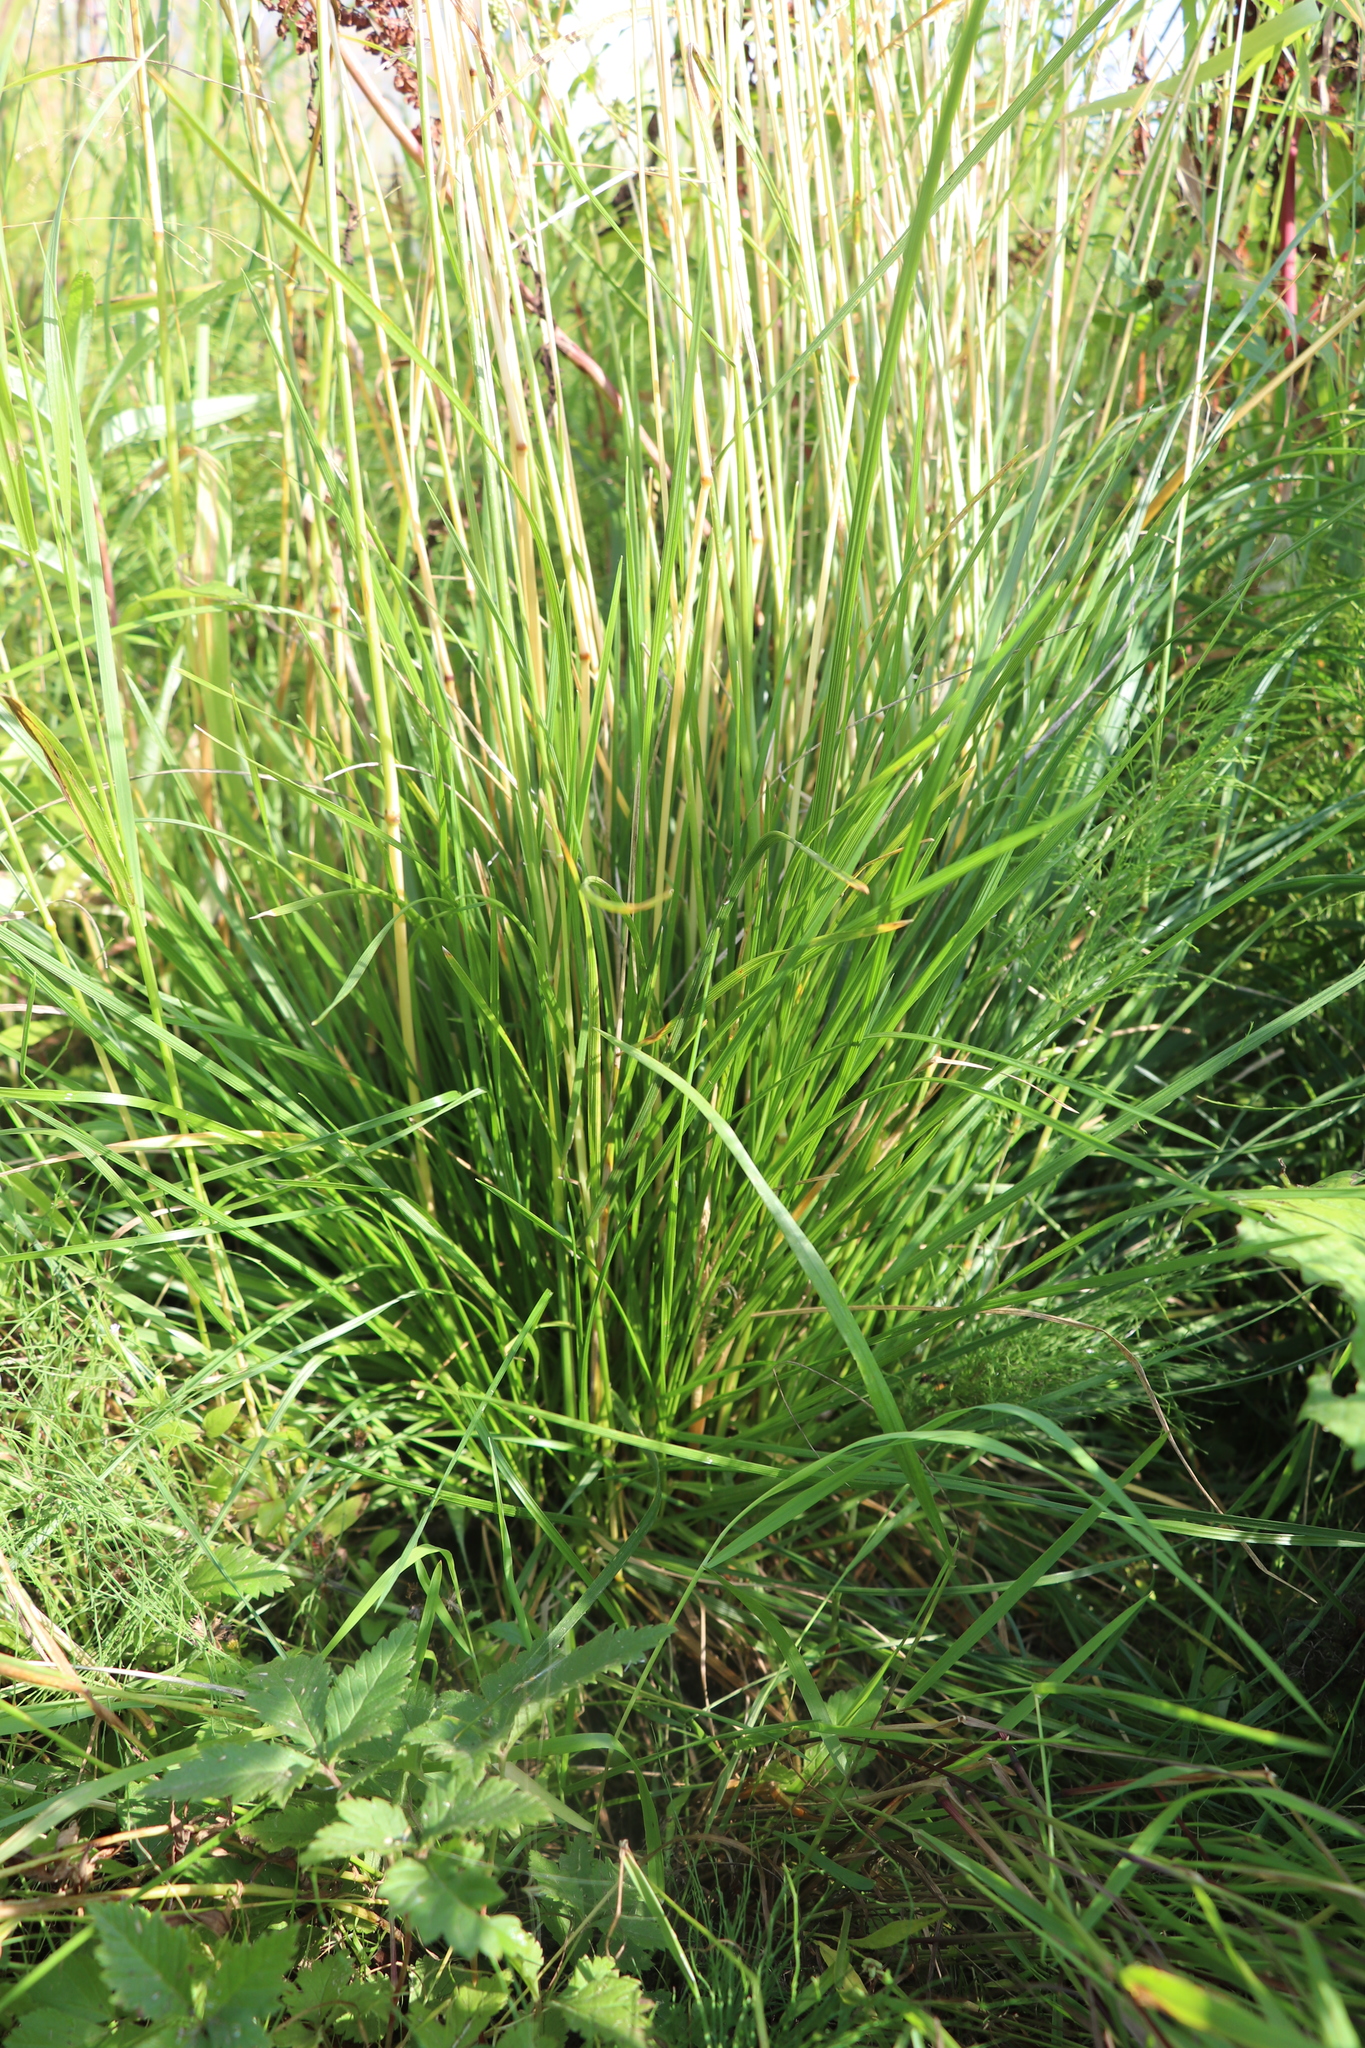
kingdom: Plantae
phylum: Tracheophyta
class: Liliopsida
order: Poales
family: Poaceae
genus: Deschampsia
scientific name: Deschampsia cespitosa
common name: Tufted hair-grass
